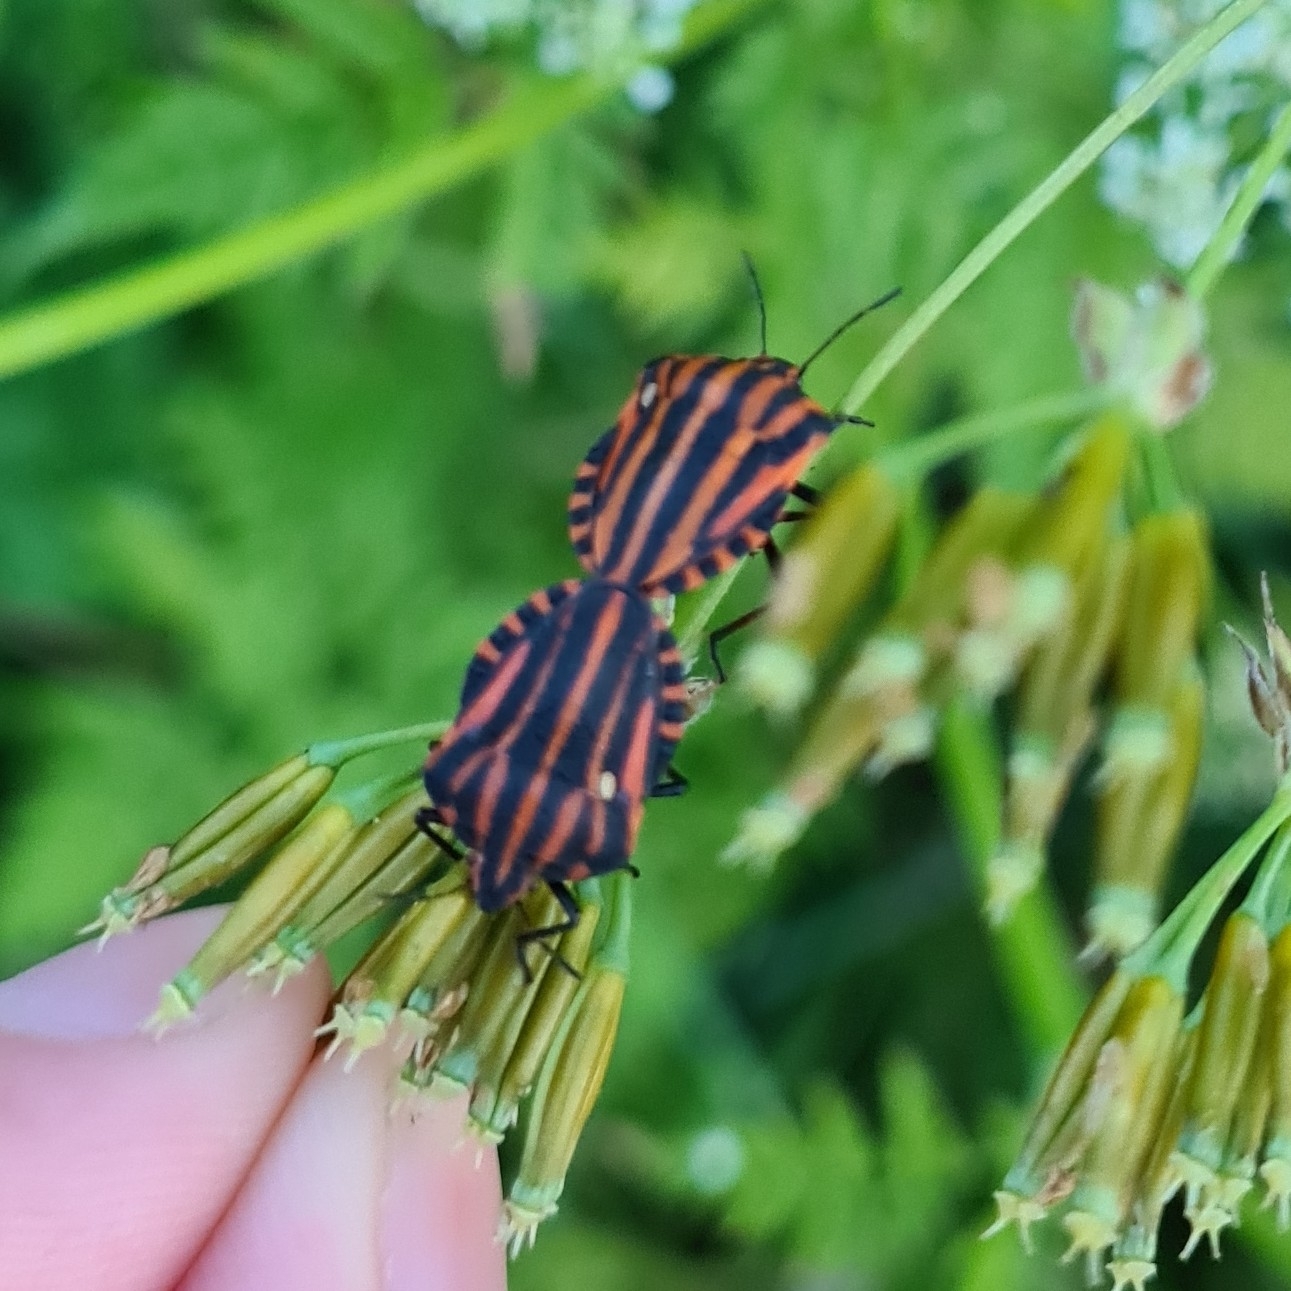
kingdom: Animalia
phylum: Arthropoda
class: Insecta
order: Hemiptera
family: Pentatomidae
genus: Graphosoma
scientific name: Graphosoma italicum
